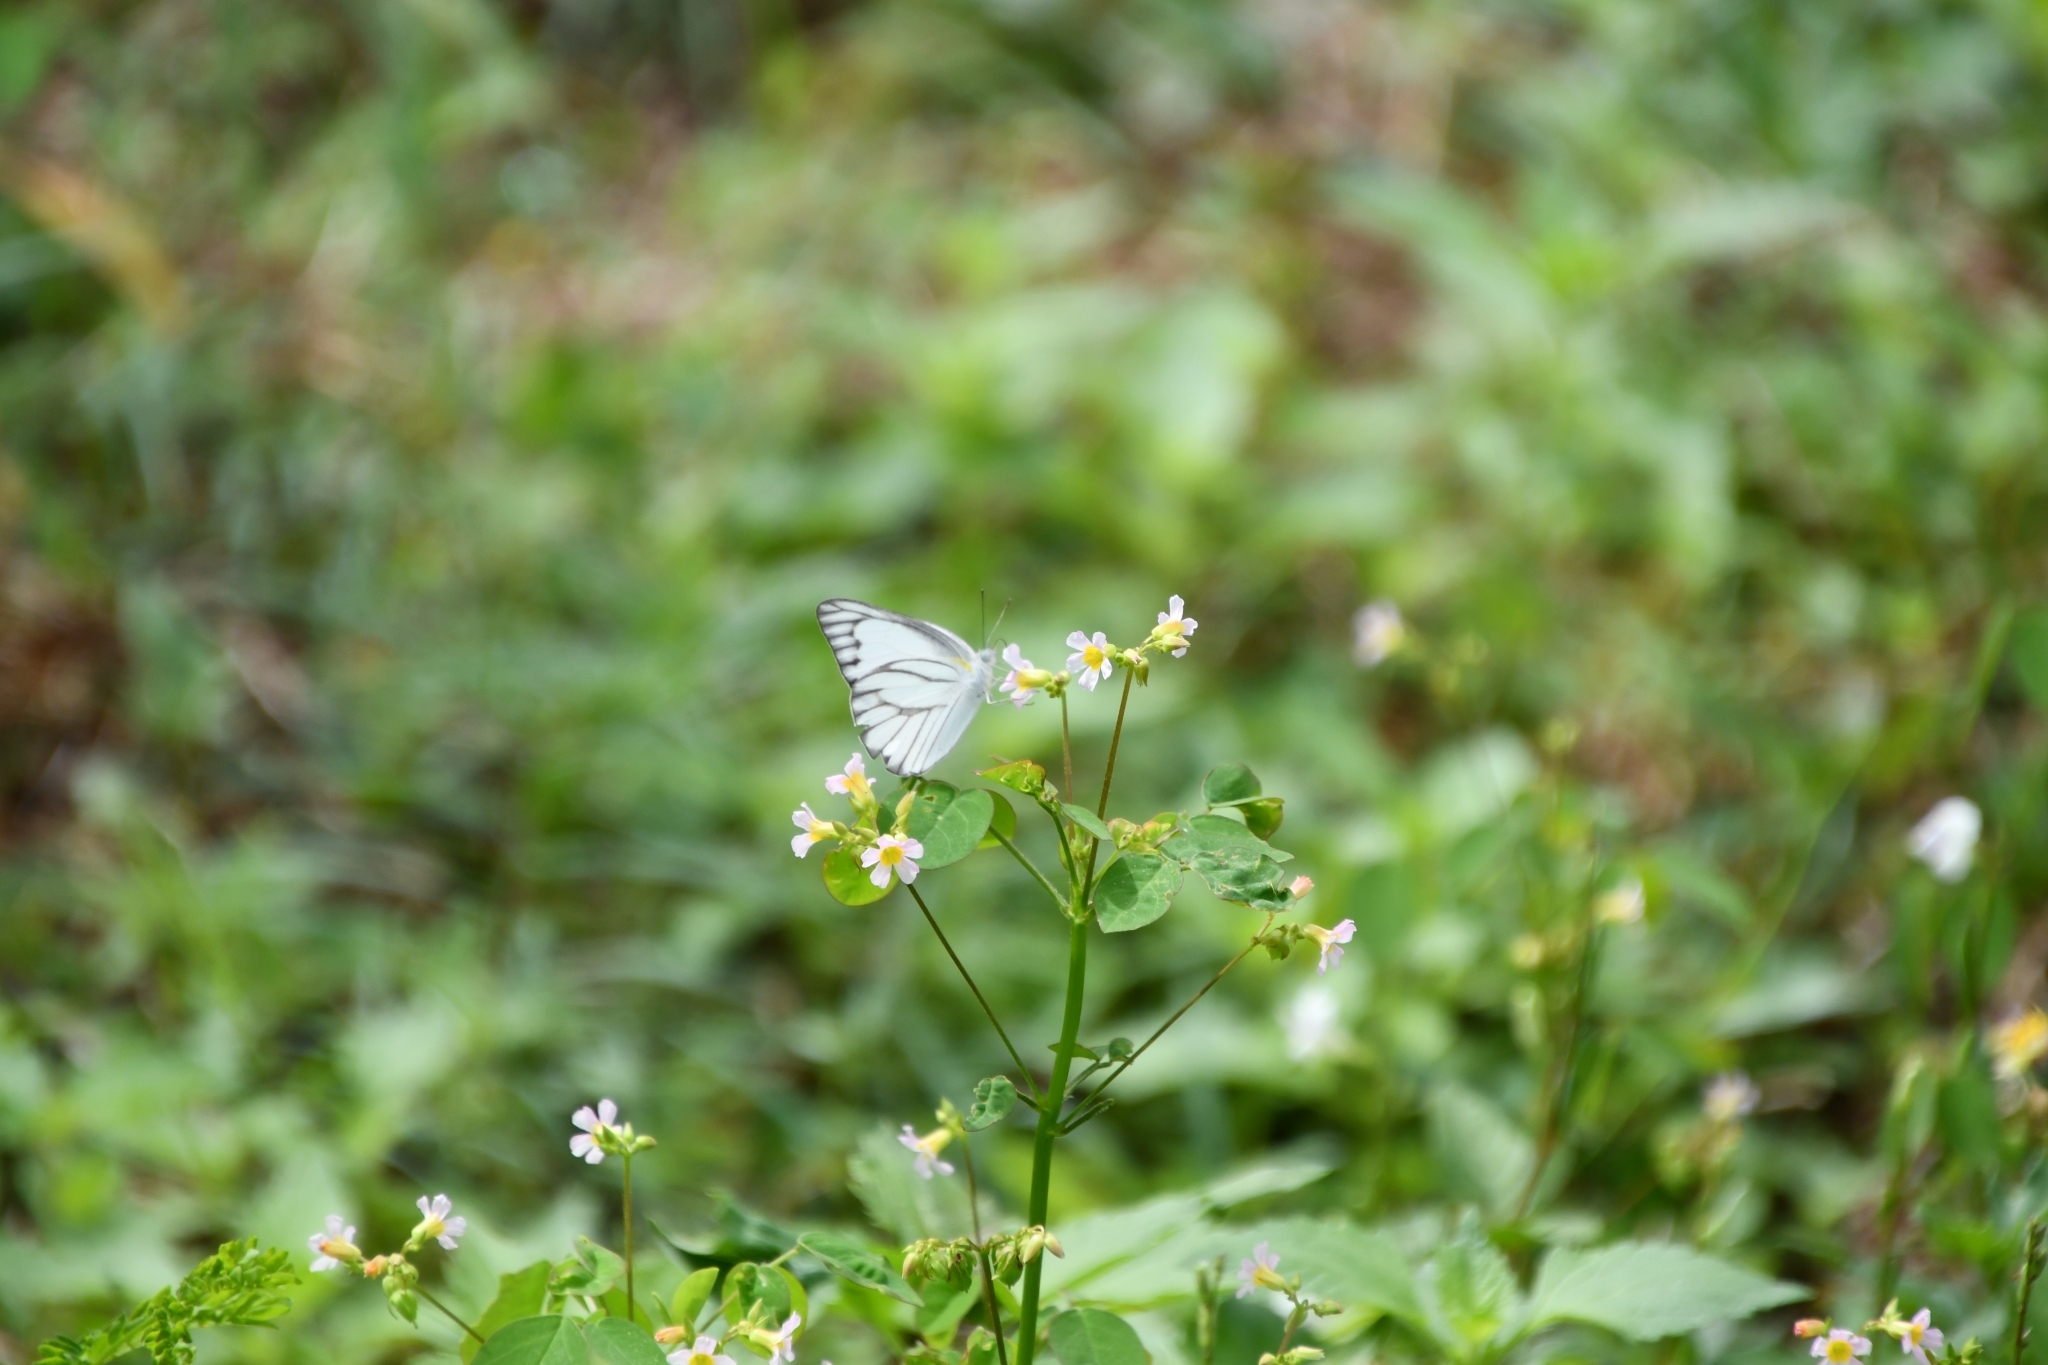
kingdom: Animalia
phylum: Arthropoda
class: Insecta
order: Lepidoptera
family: Pieridae
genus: Appias
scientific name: Appias libythea
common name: Striped albatross
